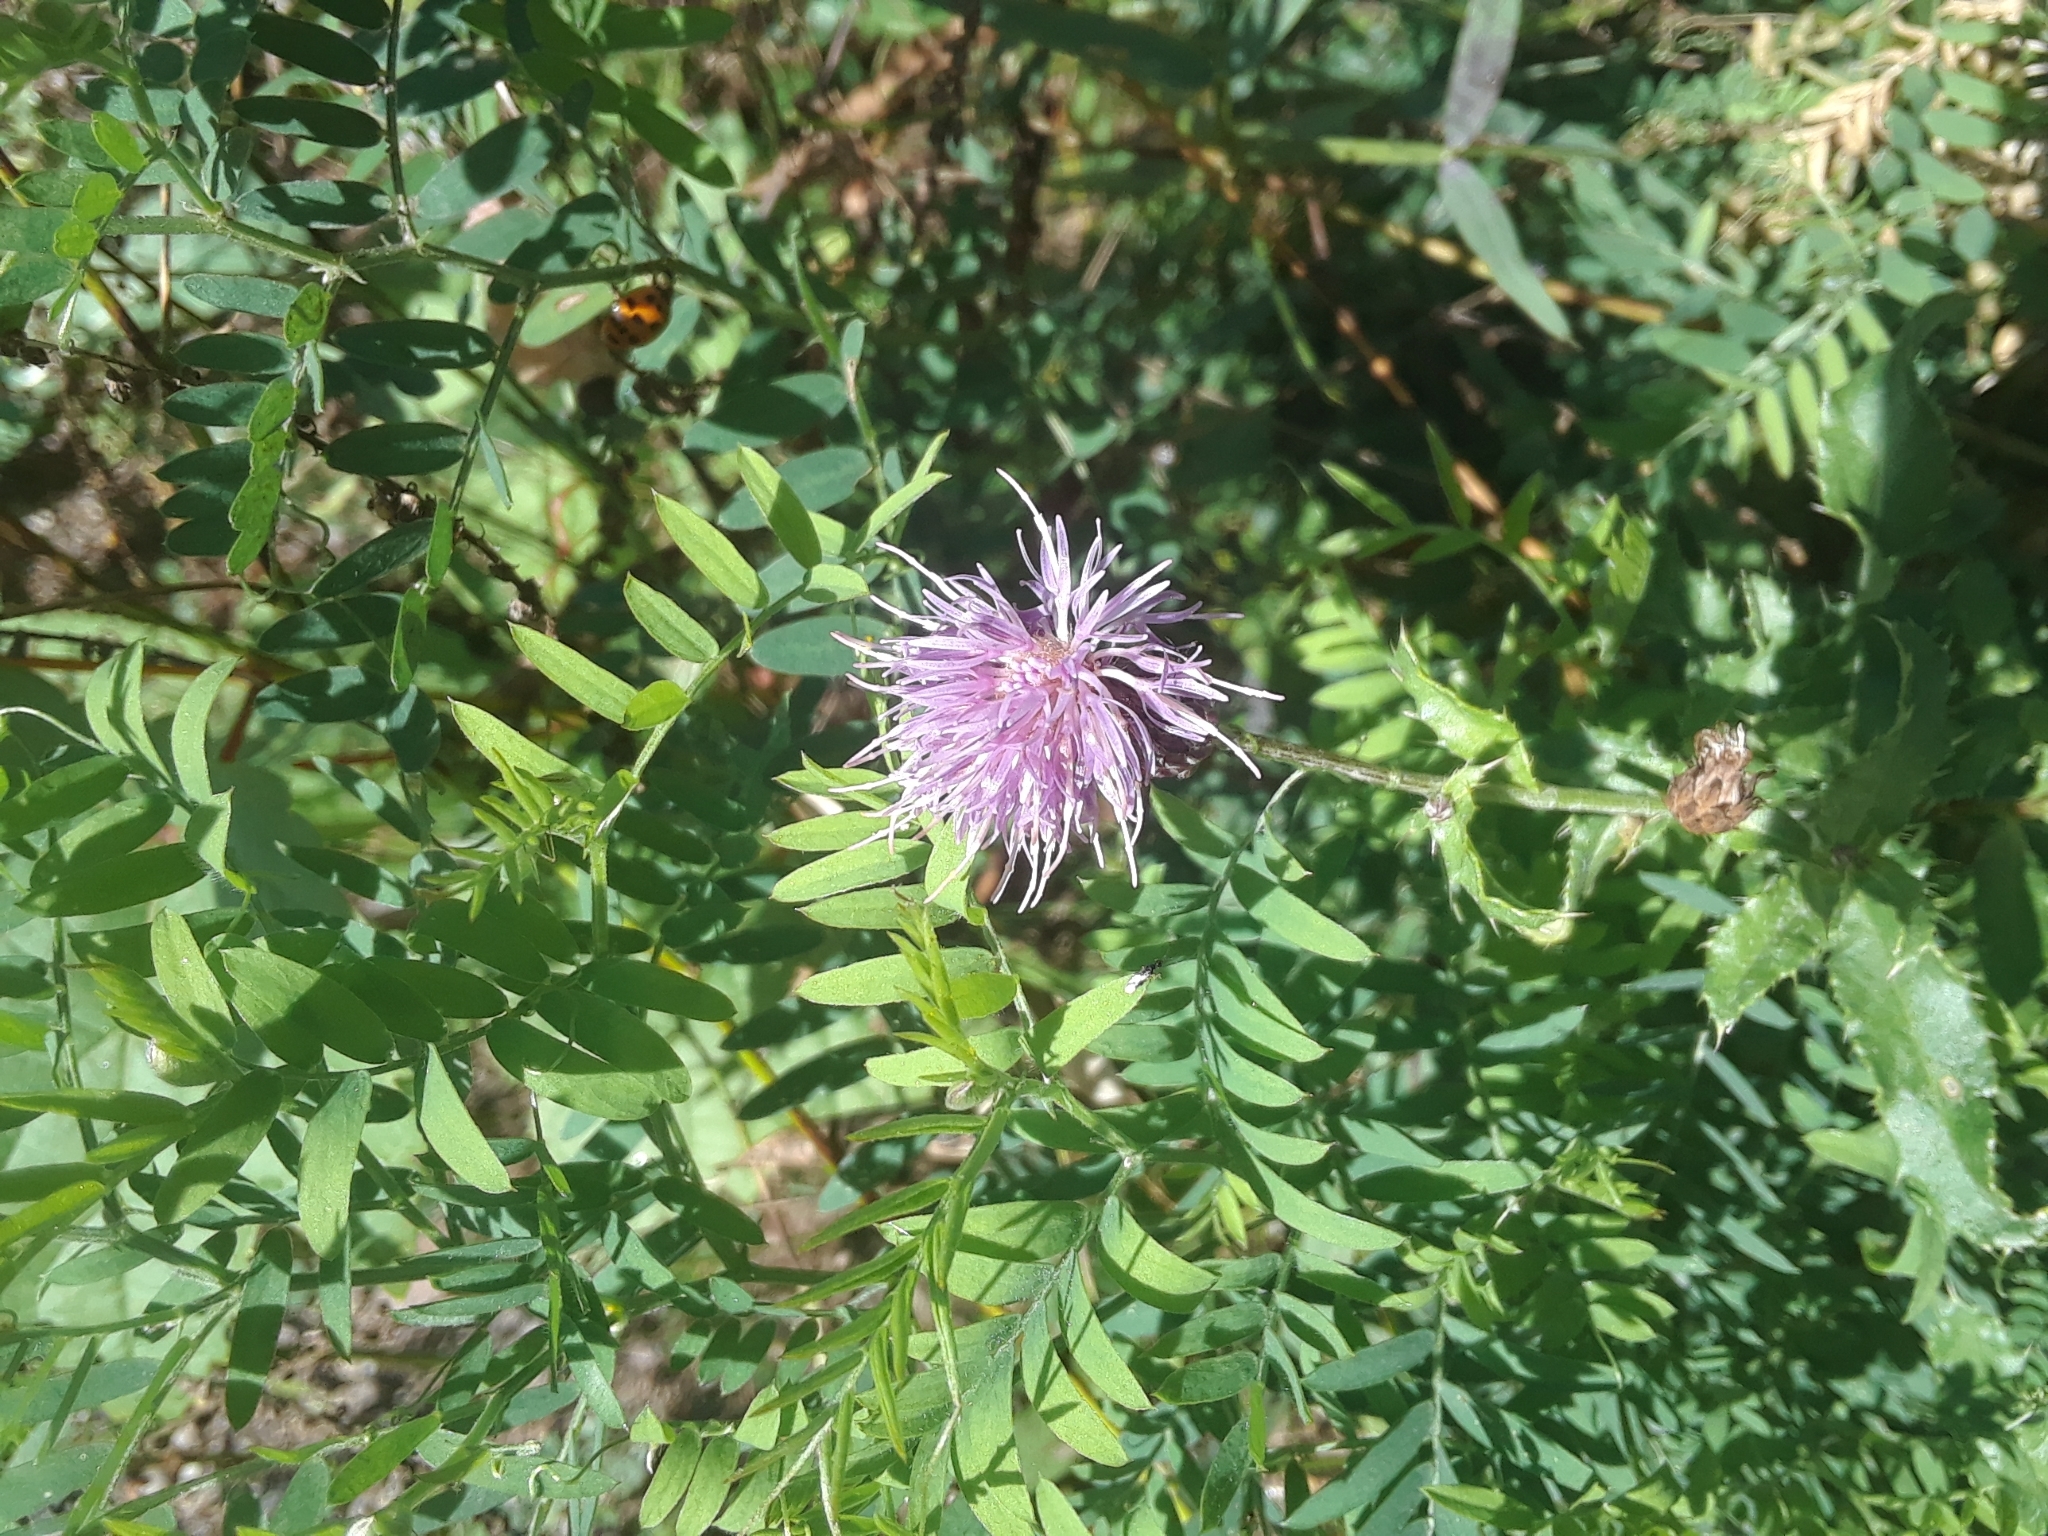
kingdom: Plantae
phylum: Tracheophyta
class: Magnoliopsida
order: Asterales
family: Asteraceae
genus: Cirsium
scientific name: Cirsium arvense
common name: Creeping thistle
